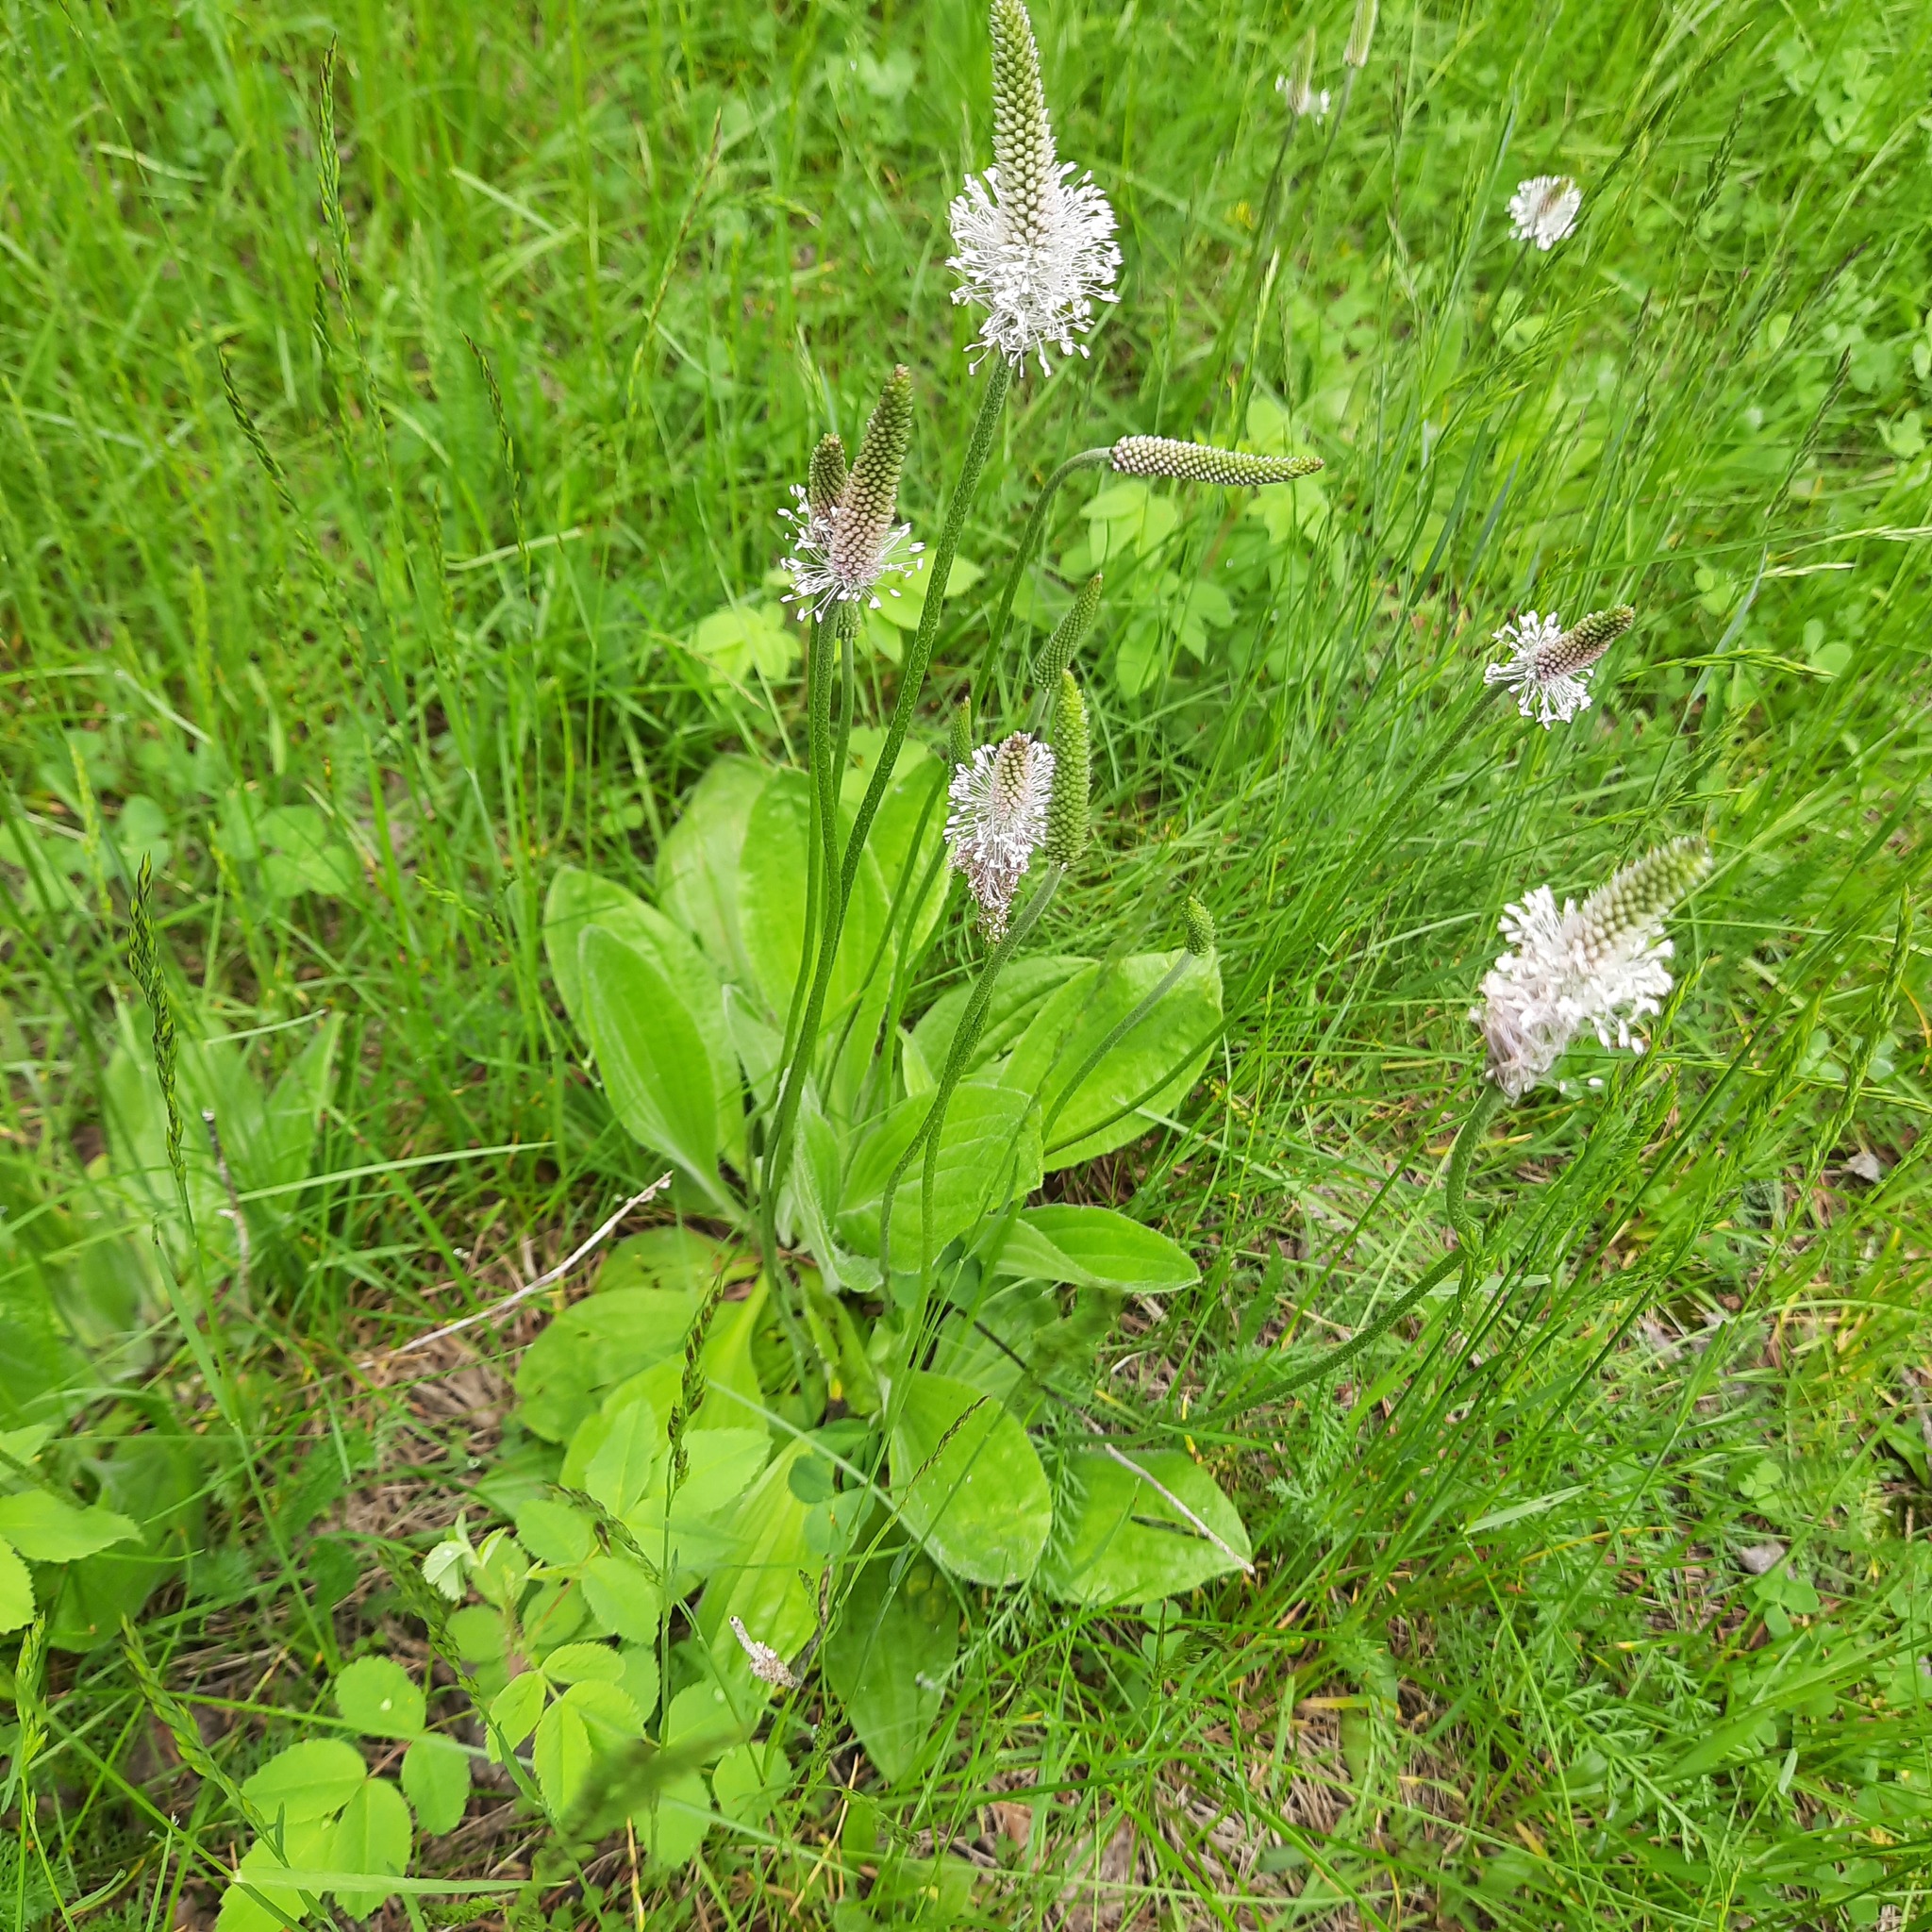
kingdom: Plantae
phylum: Tracheophyta
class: Magnoliopsida
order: Lamiales
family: Plantaginaceae
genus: Plantago
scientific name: Plantago media
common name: Hoary plantain
